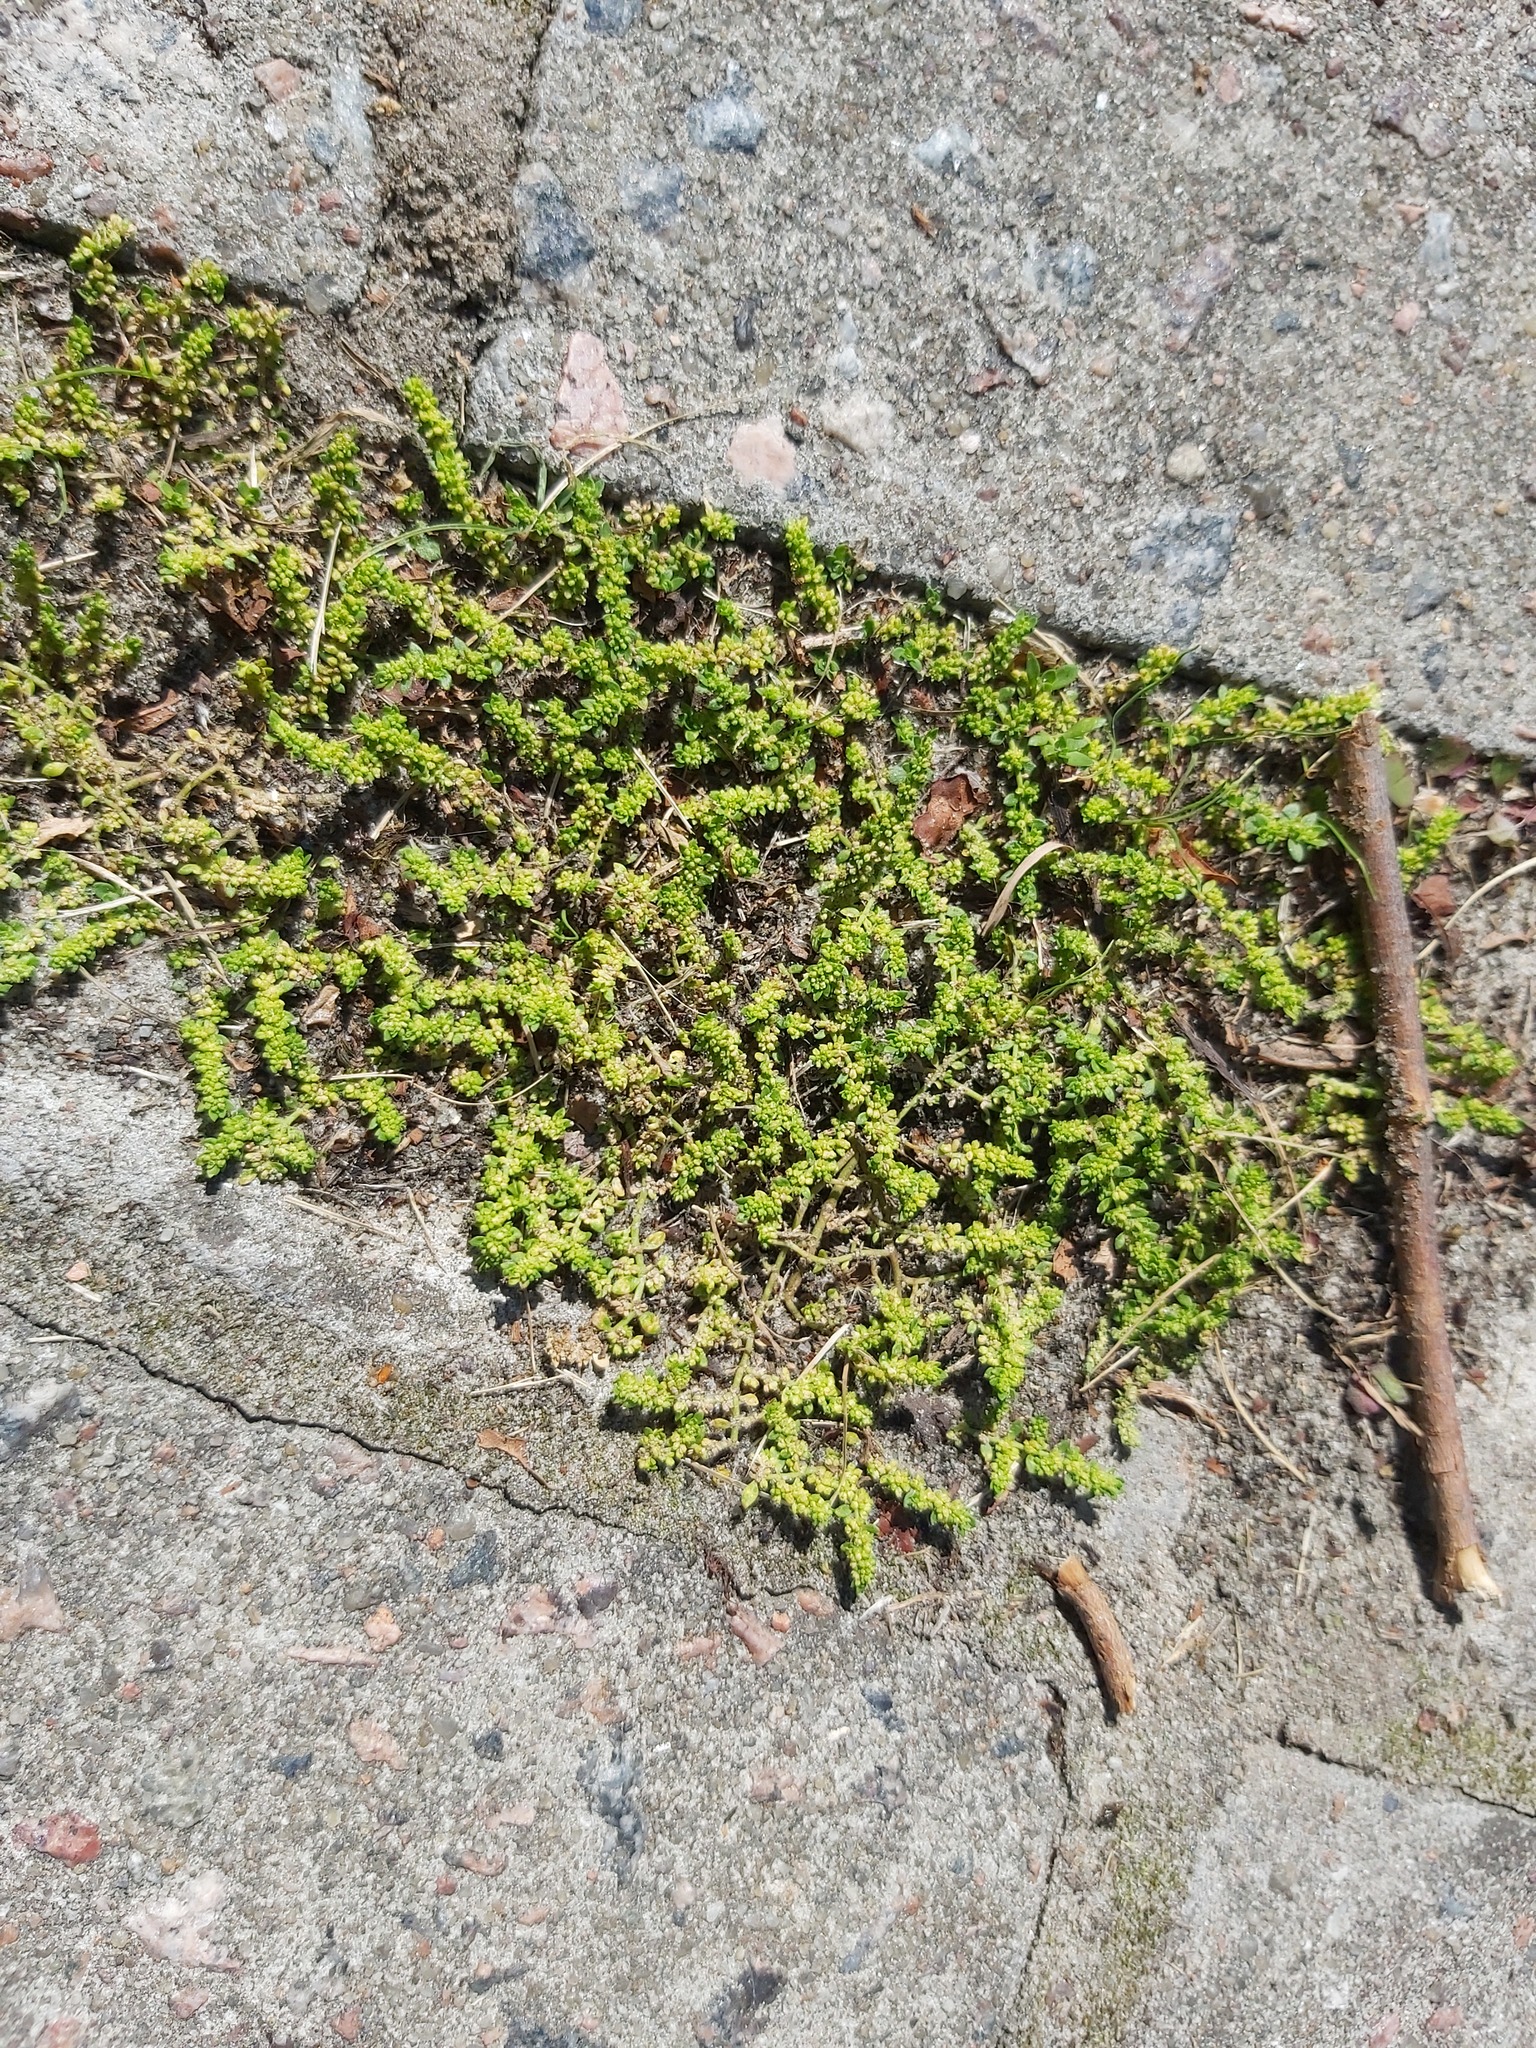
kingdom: Plantae
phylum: Tracheophyta
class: Magnoliopsida
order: Caryophyllales
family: Caryophyllaceae
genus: Herniaria
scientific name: Herniaria glabra
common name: Smooth rupturewort
